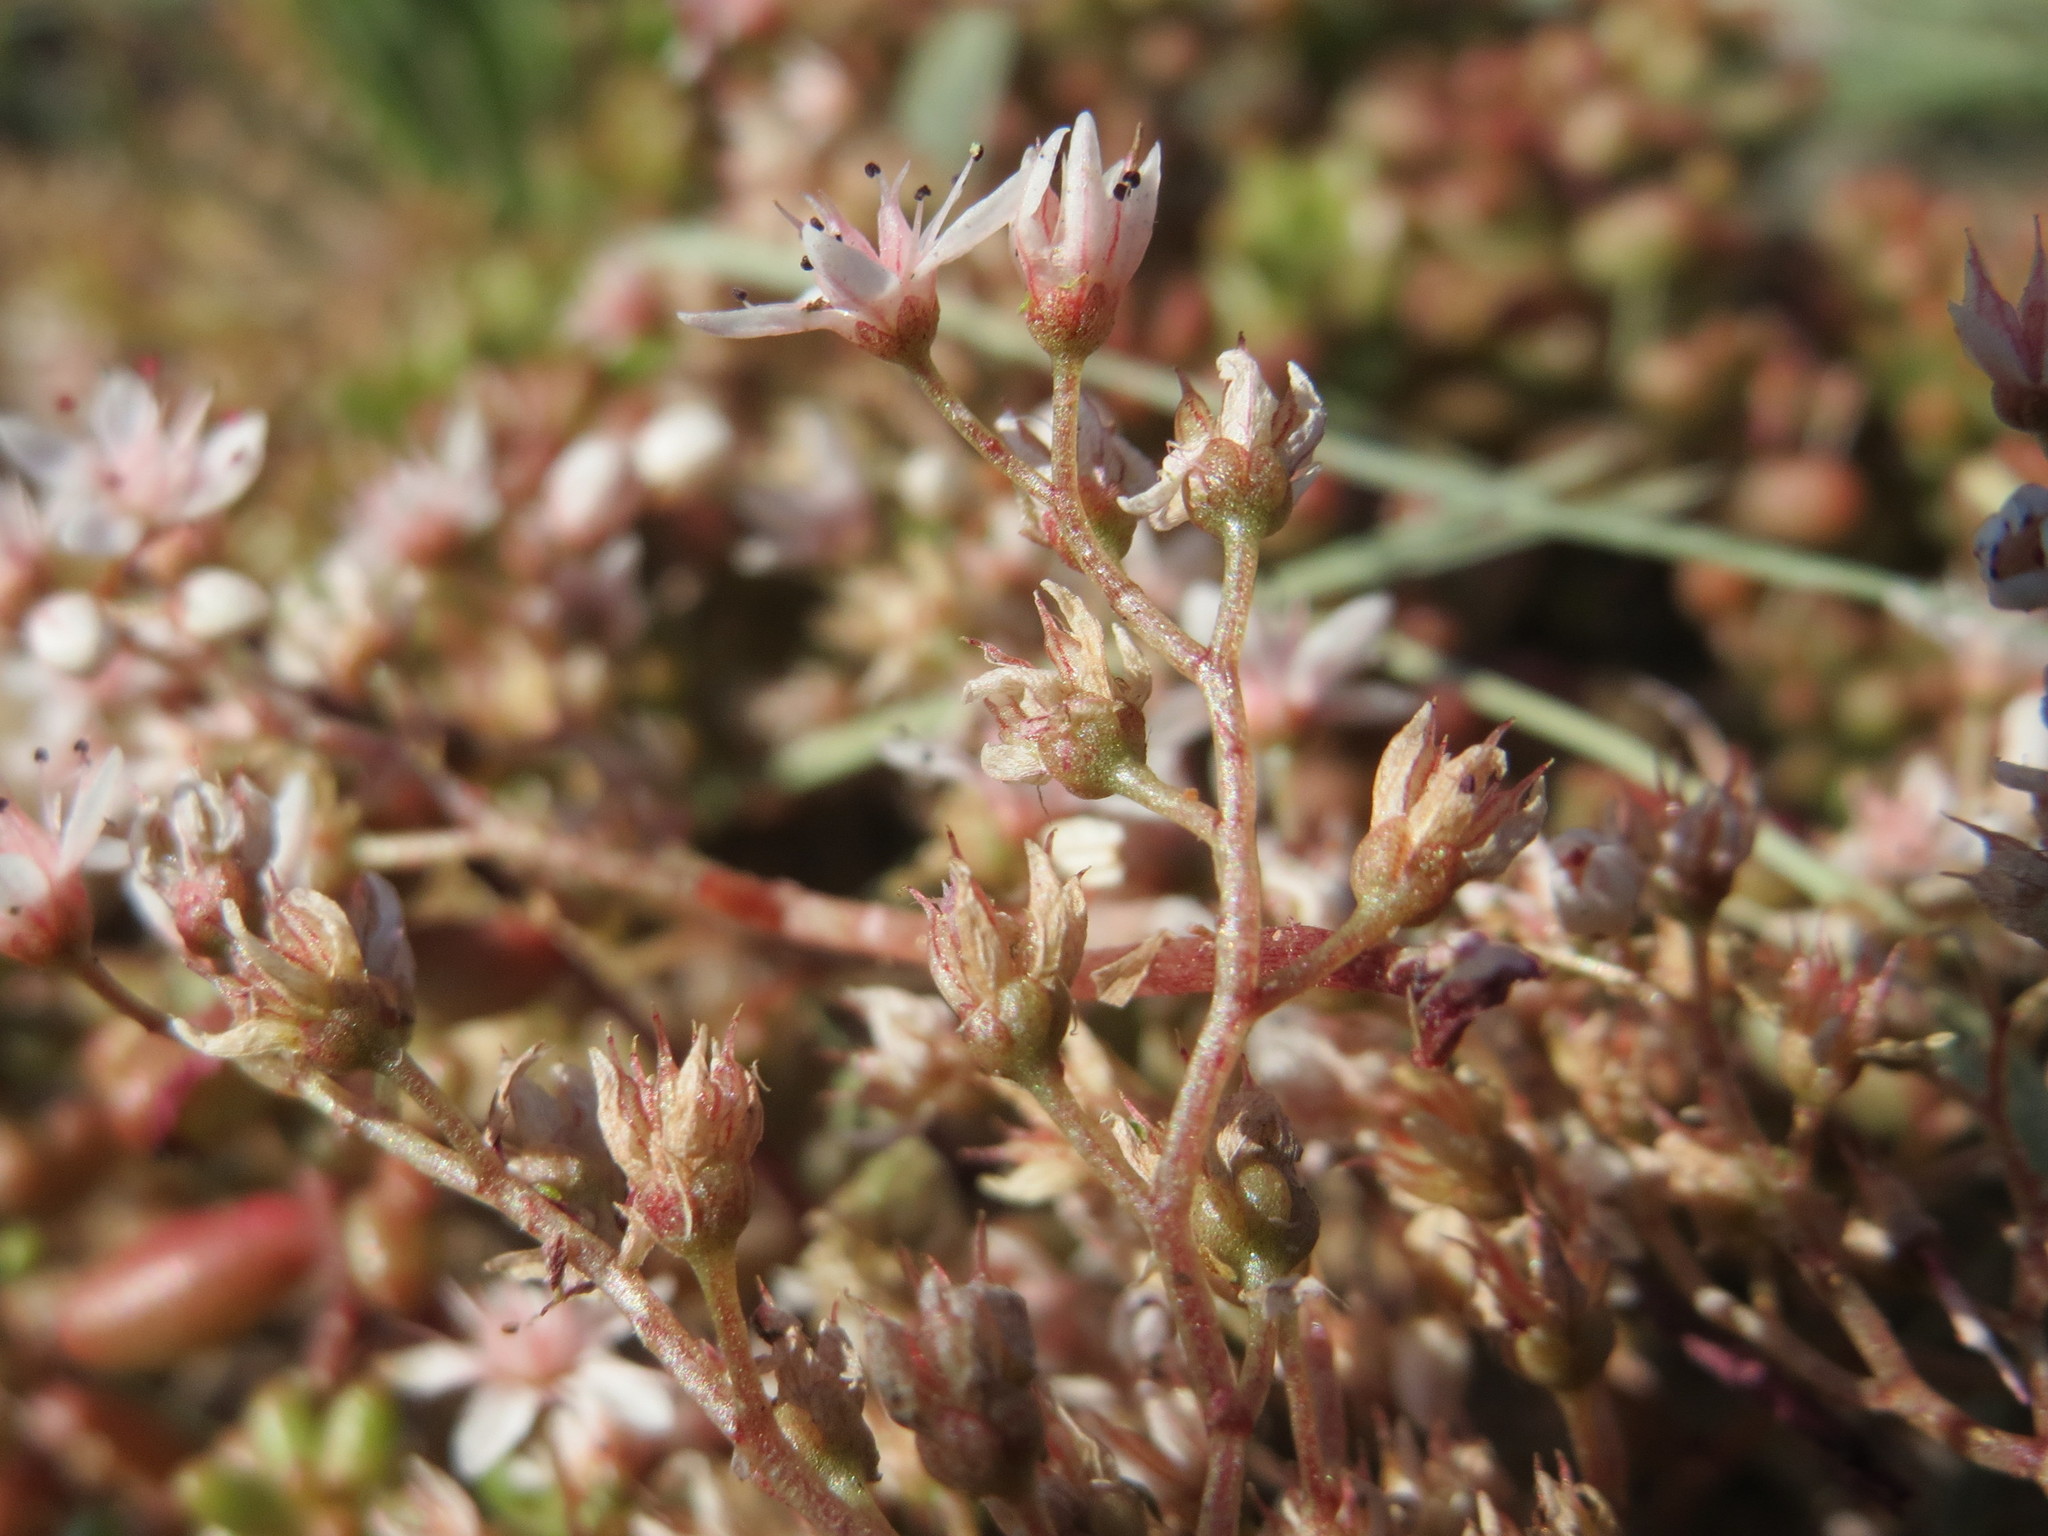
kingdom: Plantae
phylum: Tracheophyta
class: Magnoliopsida
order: Saxifragales
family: Crassulaceae
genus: Sedum
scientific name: Sedum album
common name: White stonecrop
